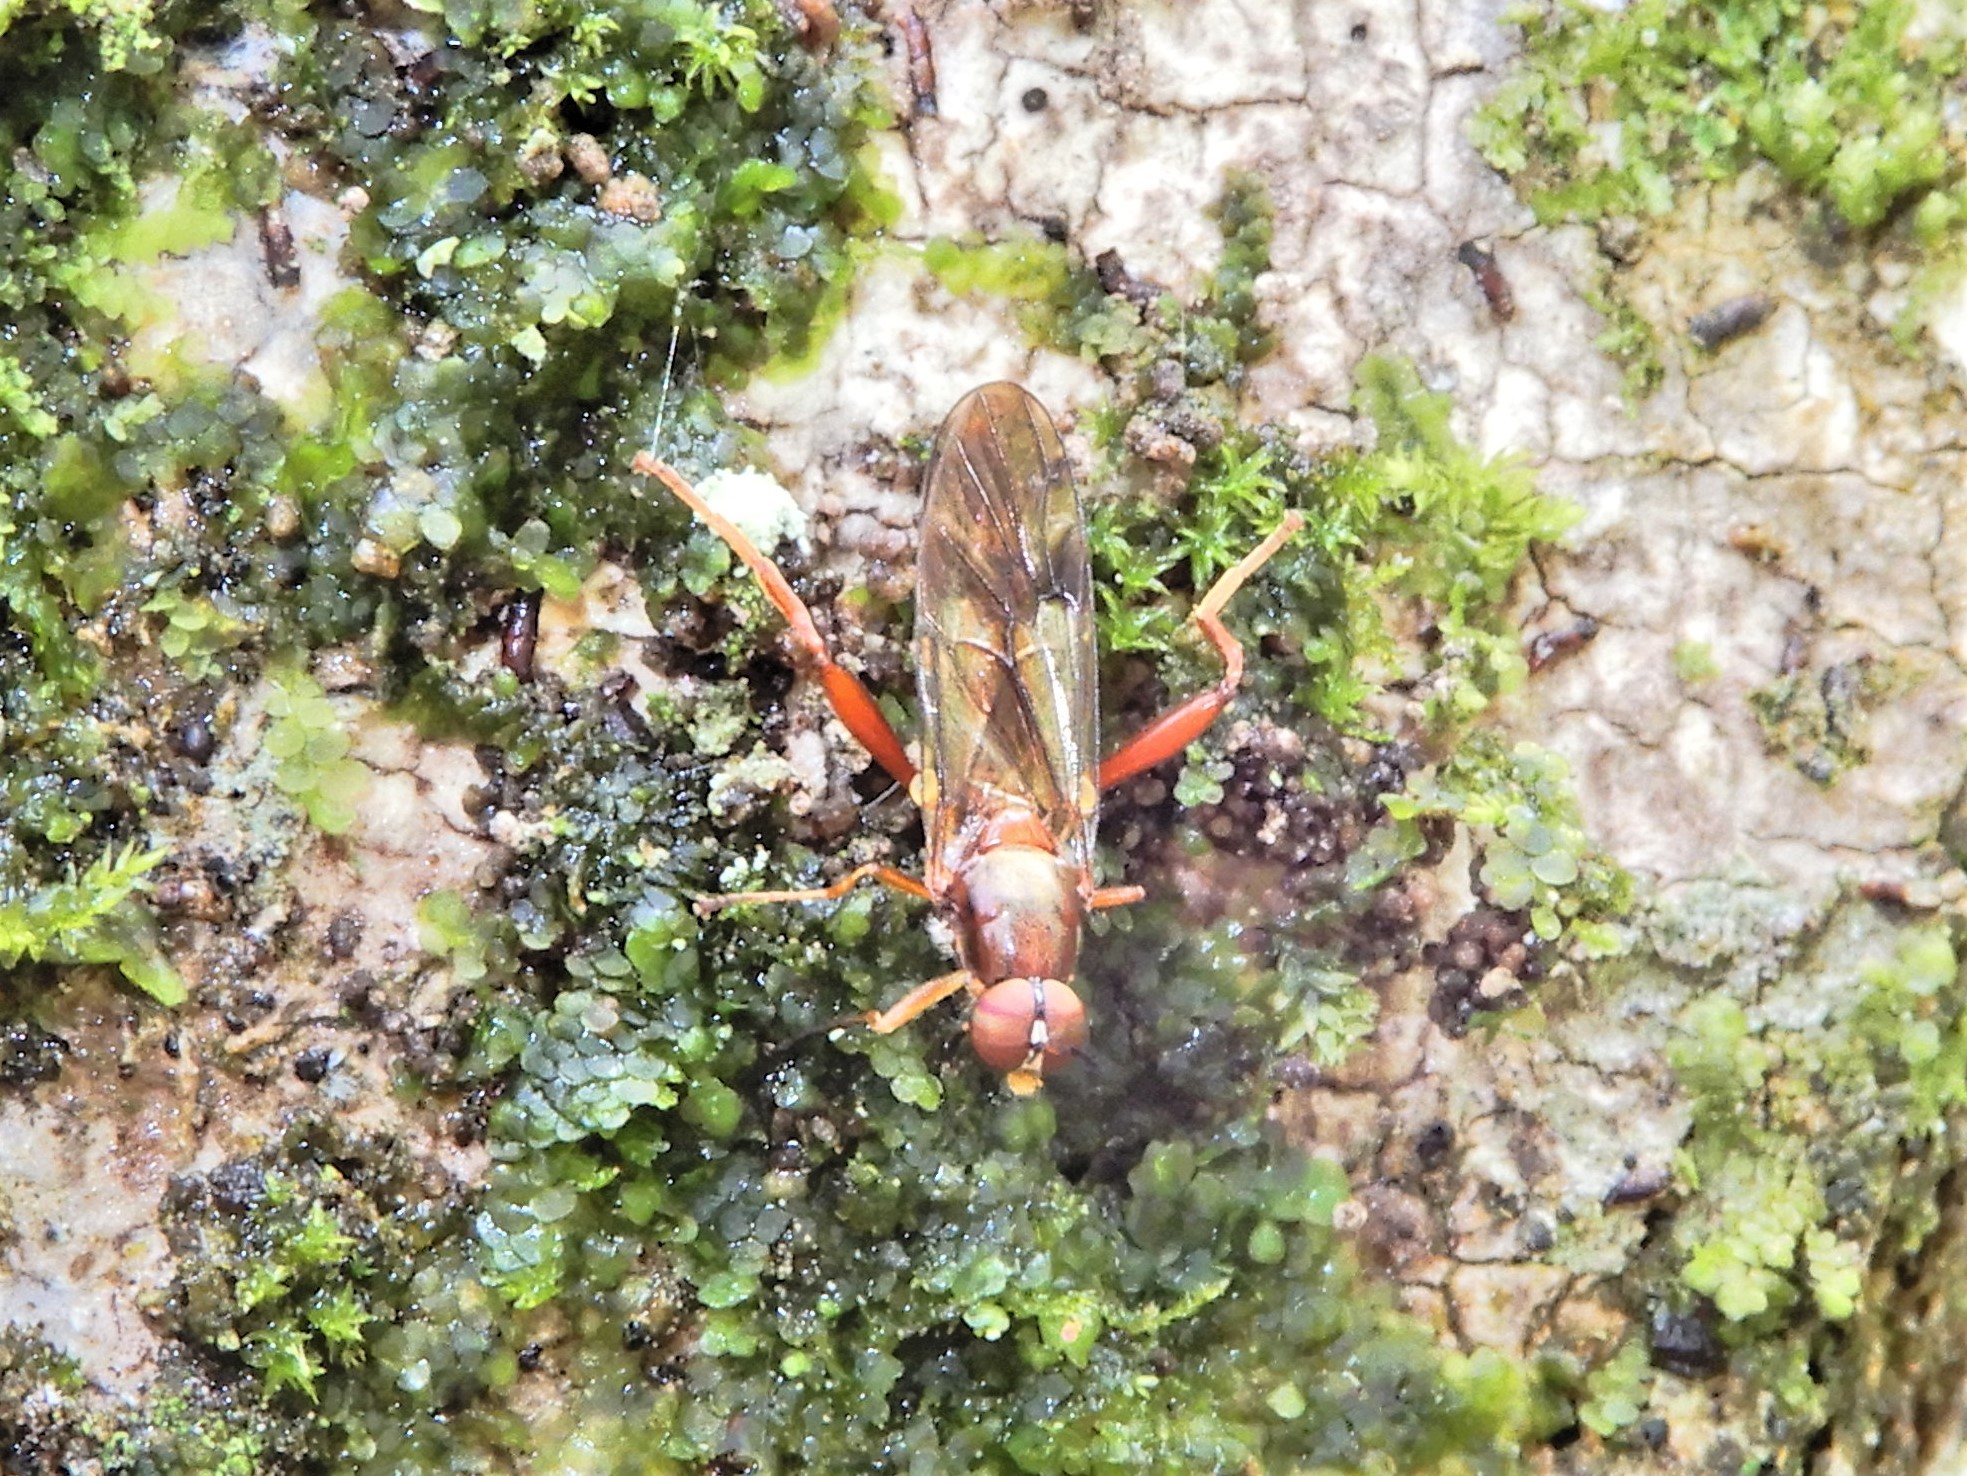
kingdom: Animalia
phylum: Arthropoda
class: Insecta
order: Diptera
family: Stratiomyidae
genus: Benhamyia
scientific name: Benhamyia straznitzkii
